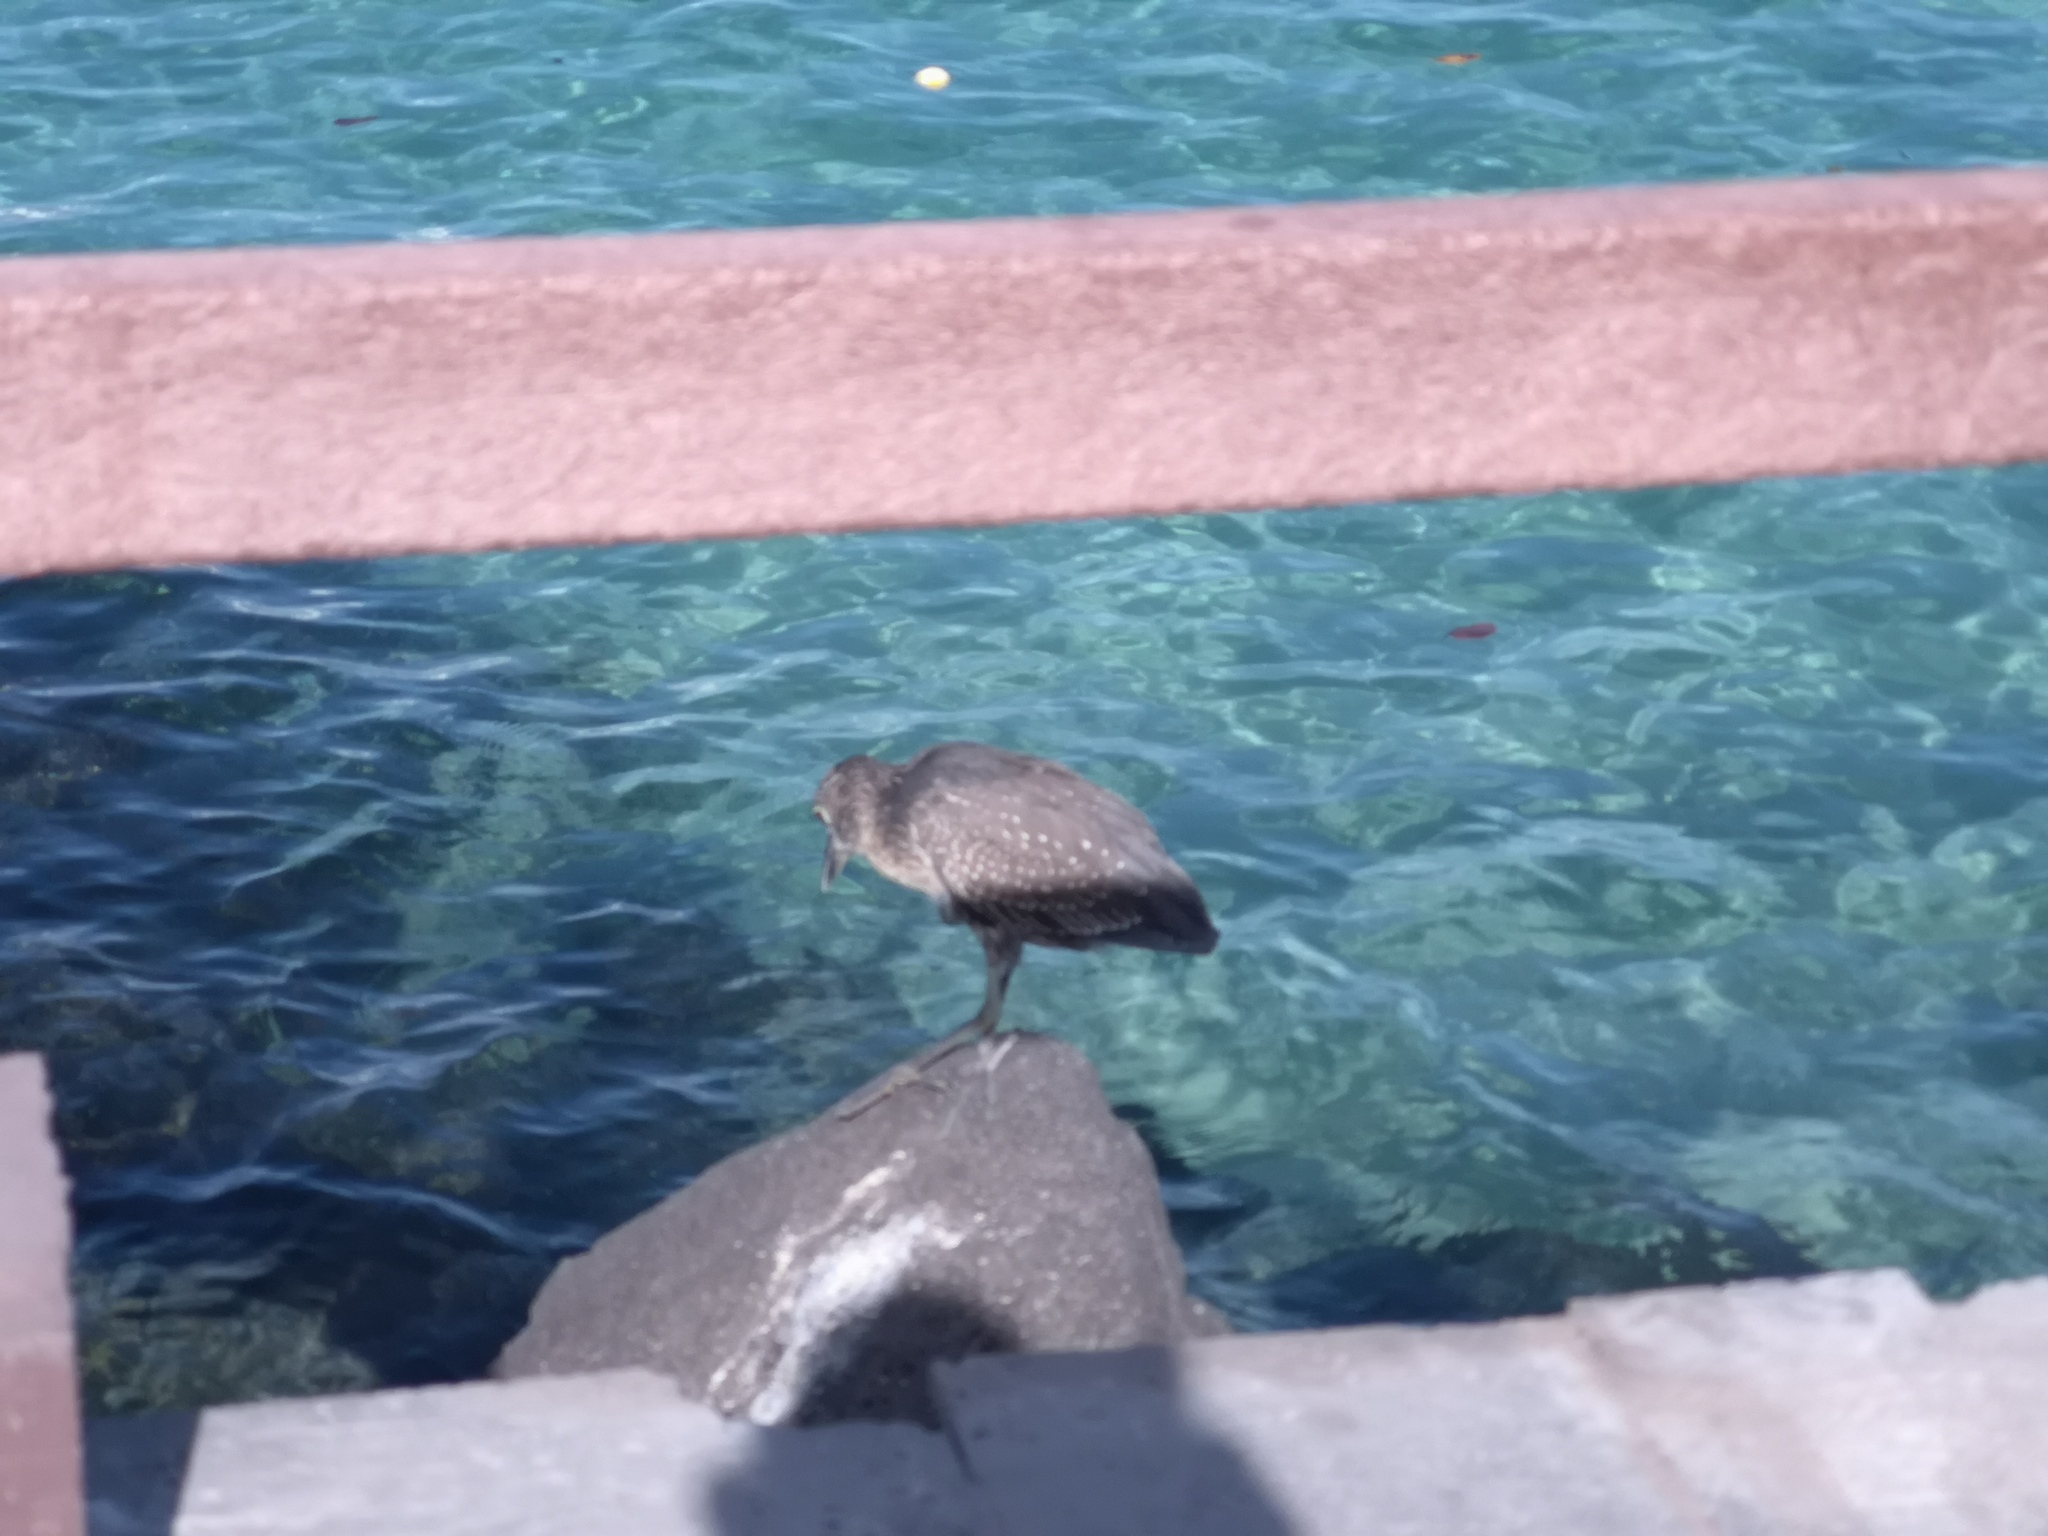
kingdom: Animalia
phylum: Chordata
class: Aves
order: Pelecaniformes
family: Ardeidae
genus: Nyctanassa
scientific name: Nyctanassa violacea
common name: Yellow-crowned night heron
